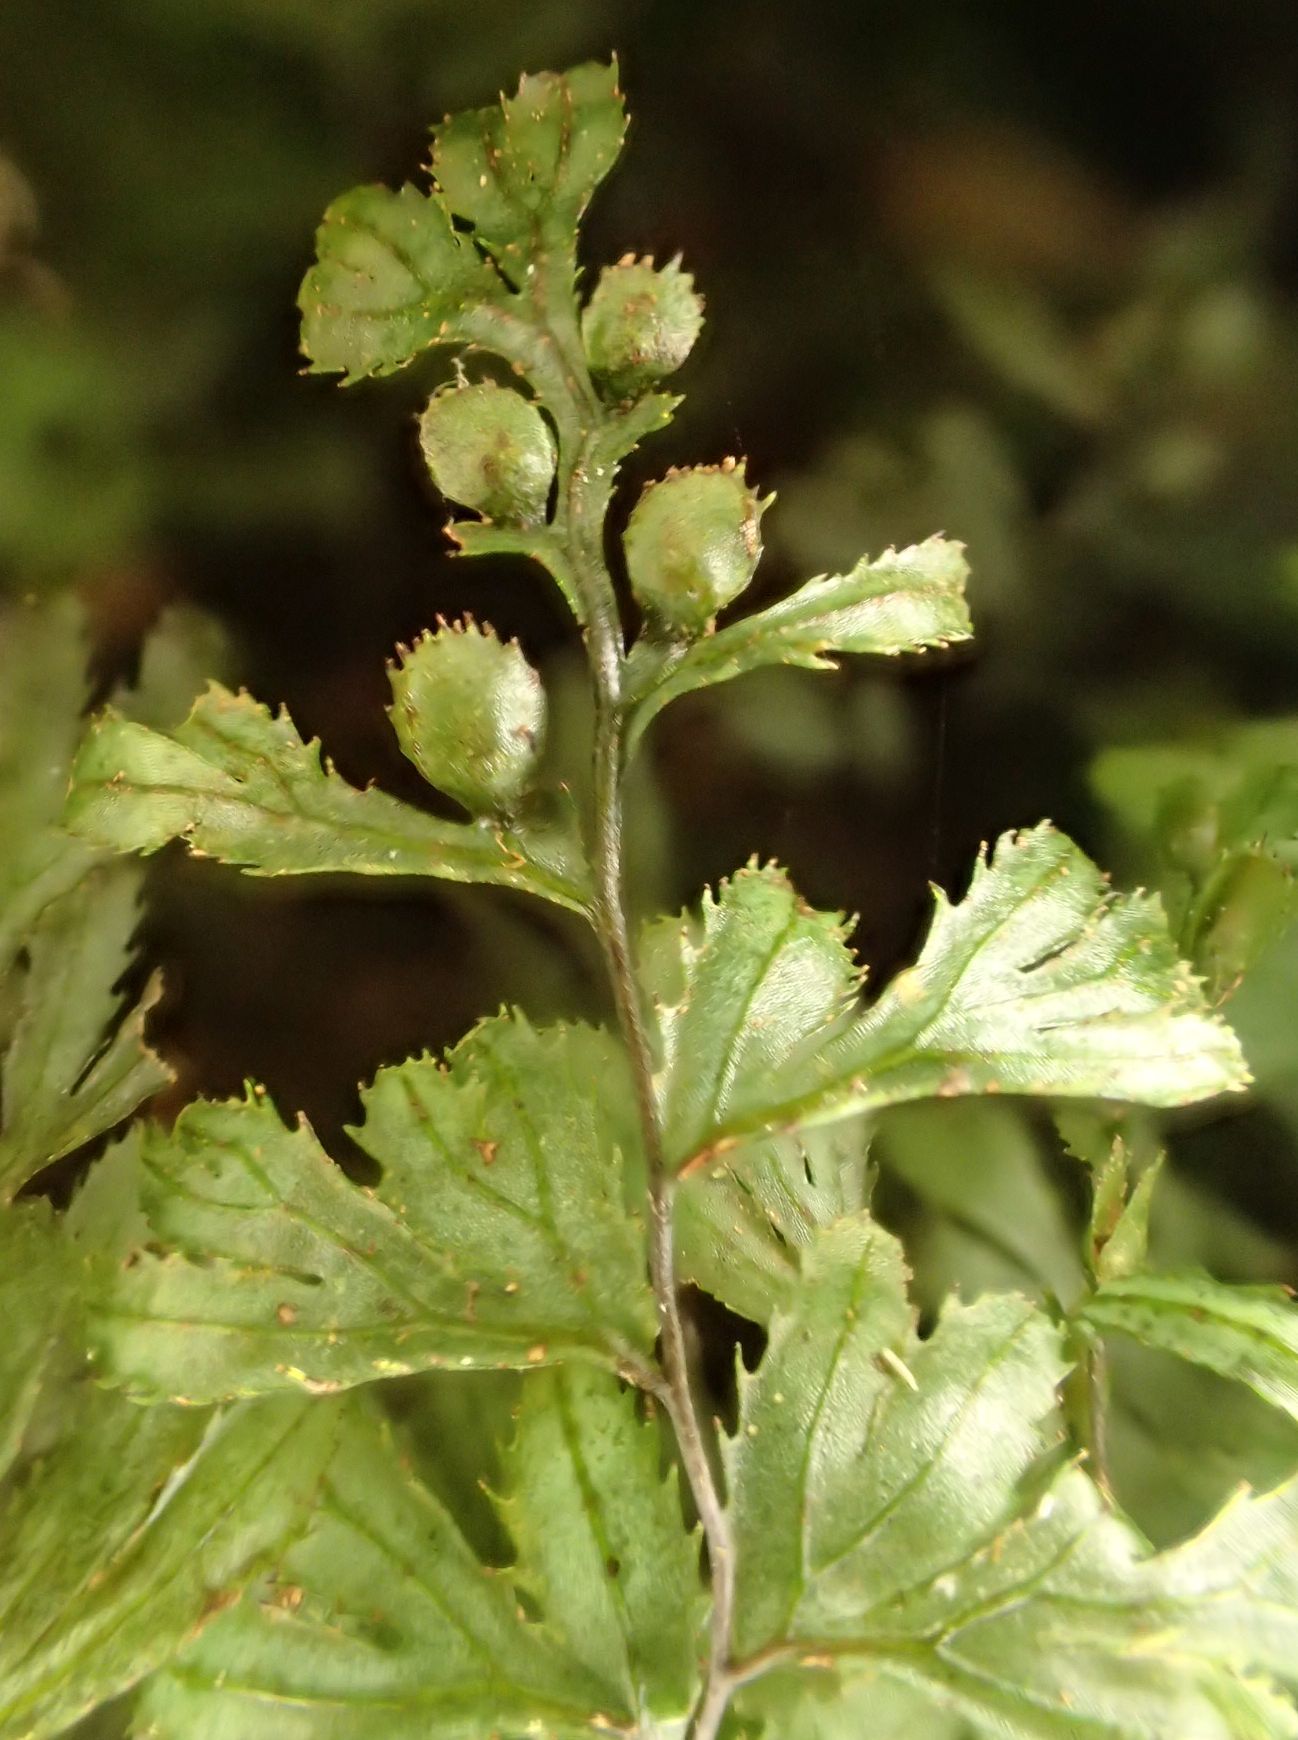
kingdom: Plantae
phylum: Tracheophyta
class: Polypodiopsida
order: Hymenophyllales
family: Hymenophyllaceae
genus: Hymenophyllum
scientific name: Hymenophyllum revolutum
